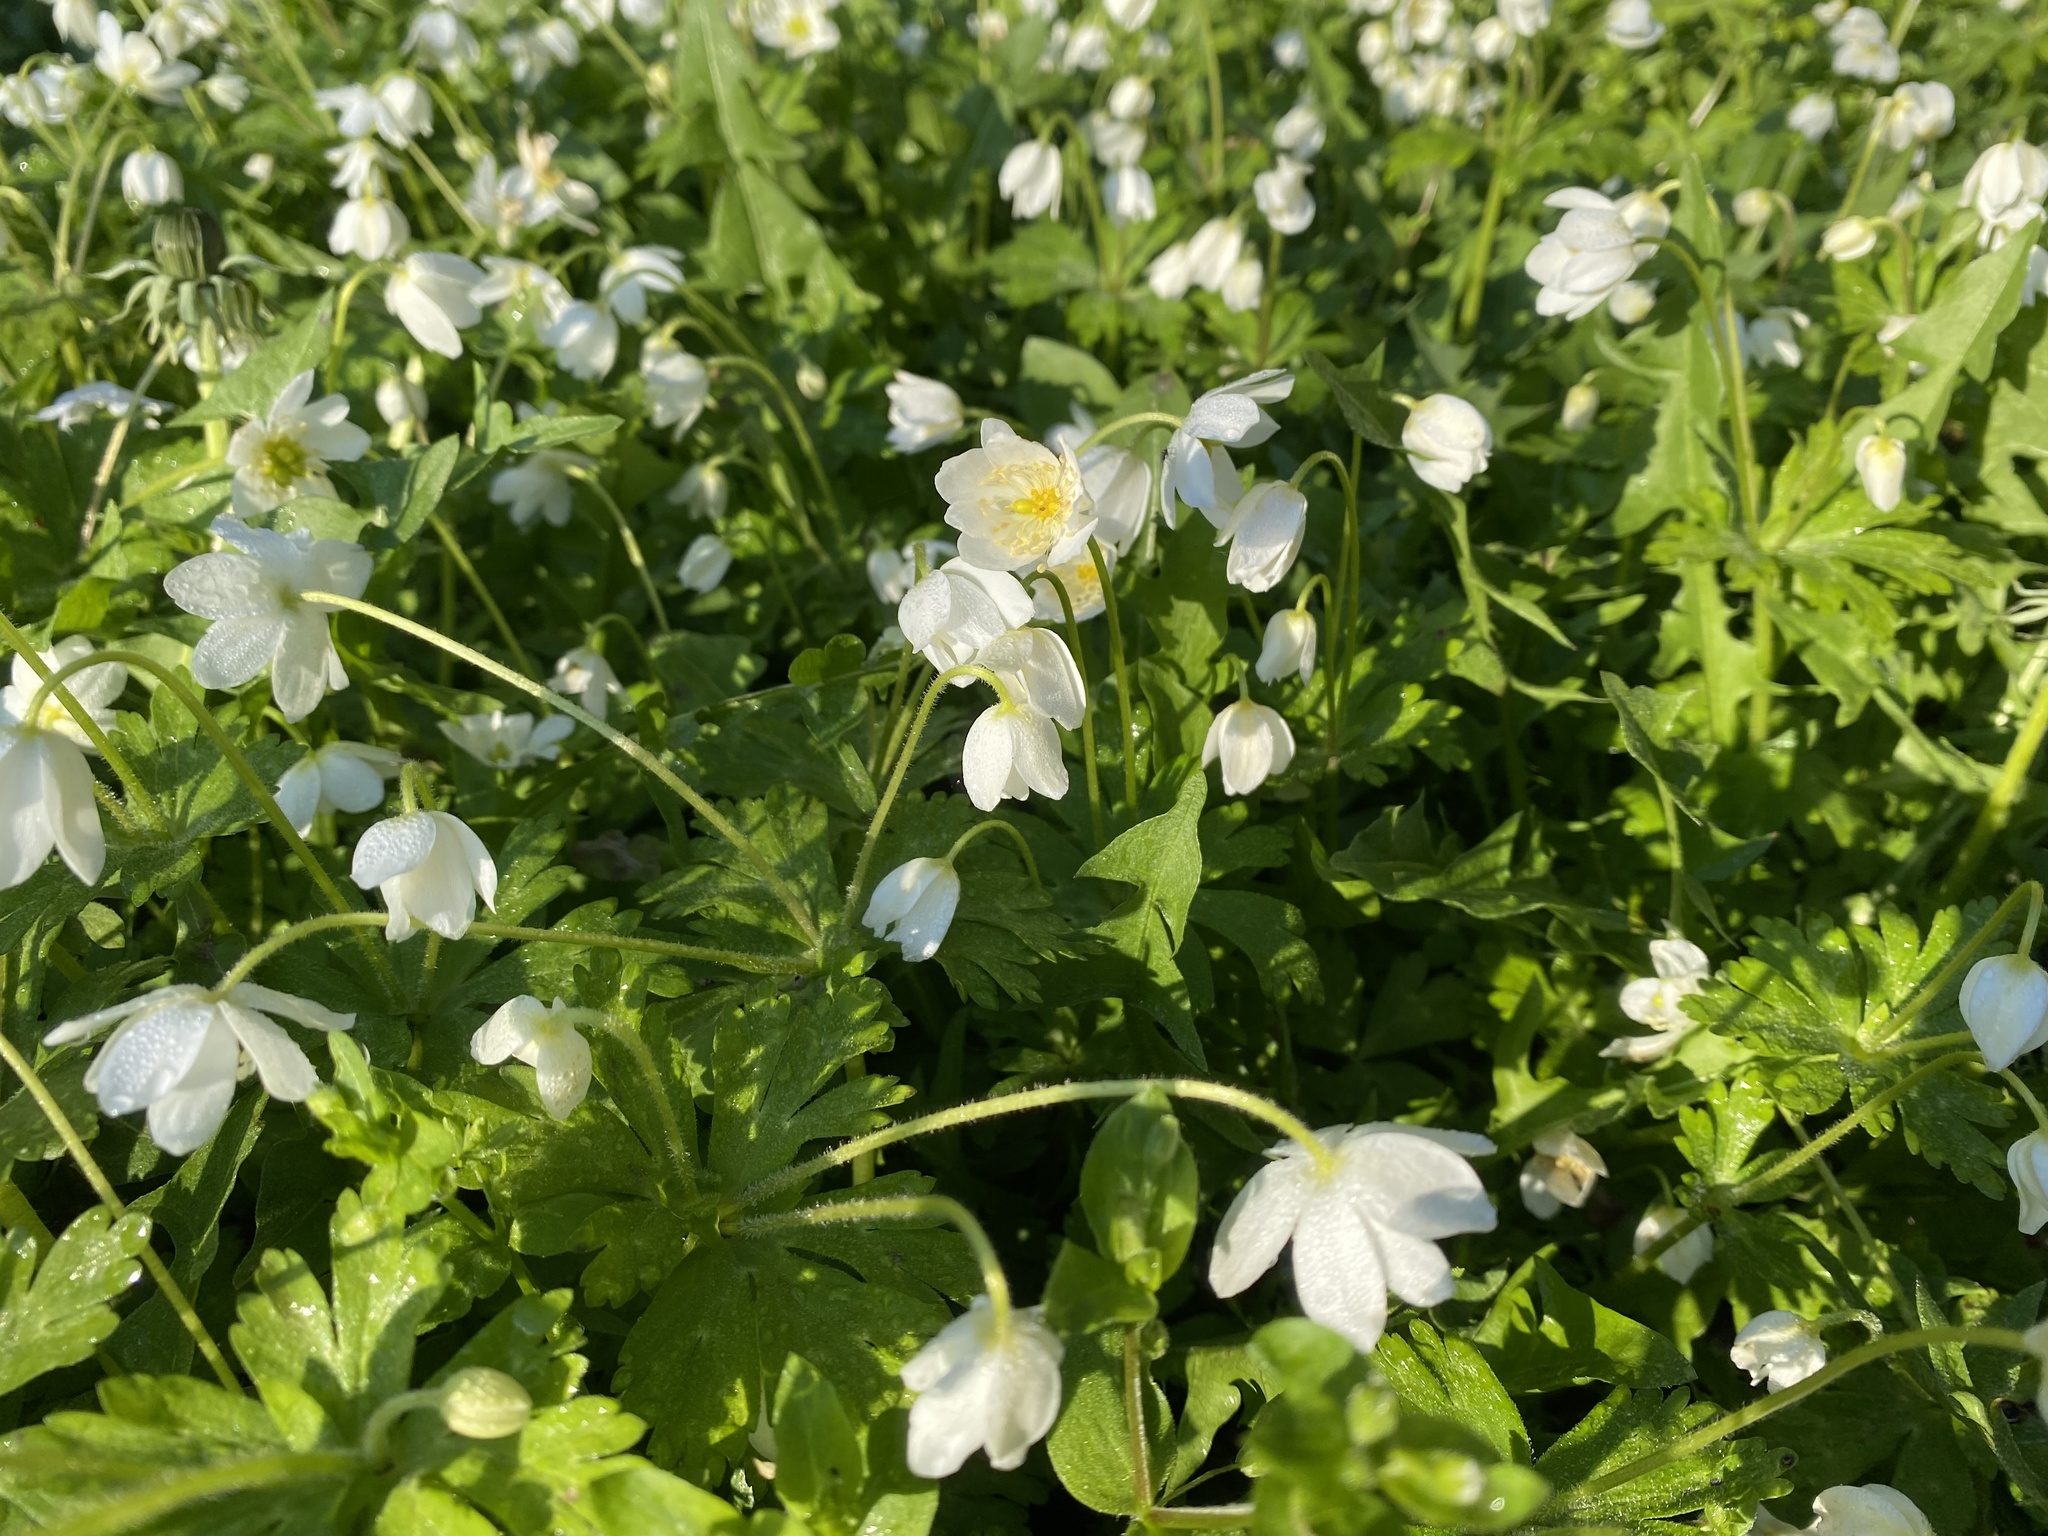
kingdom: Plantae
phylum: Tracheophyta
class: Magnoliopsida
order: Ranunculales
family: Ranunculaceae
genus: Anemonastrum
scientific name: Anemonastrum flaccidum
